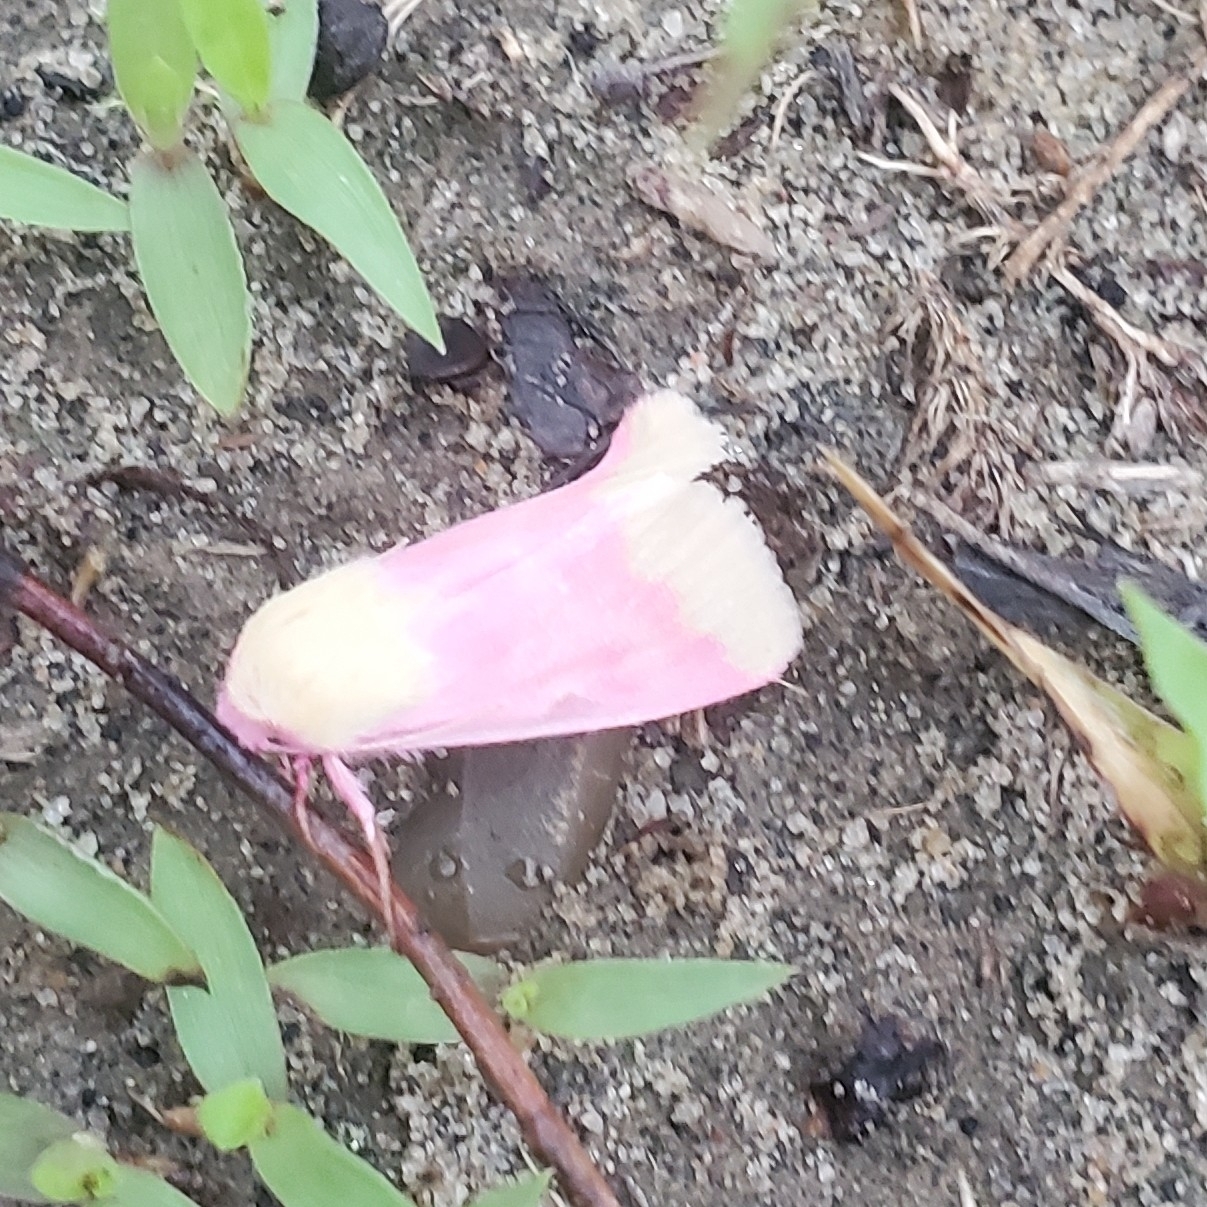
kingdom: Animalia
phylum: Arthropoda
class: Insecta
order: Lepidoptera
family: Noctuidae
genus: Schinia
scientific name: Schinia florida
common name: Primrose moth
